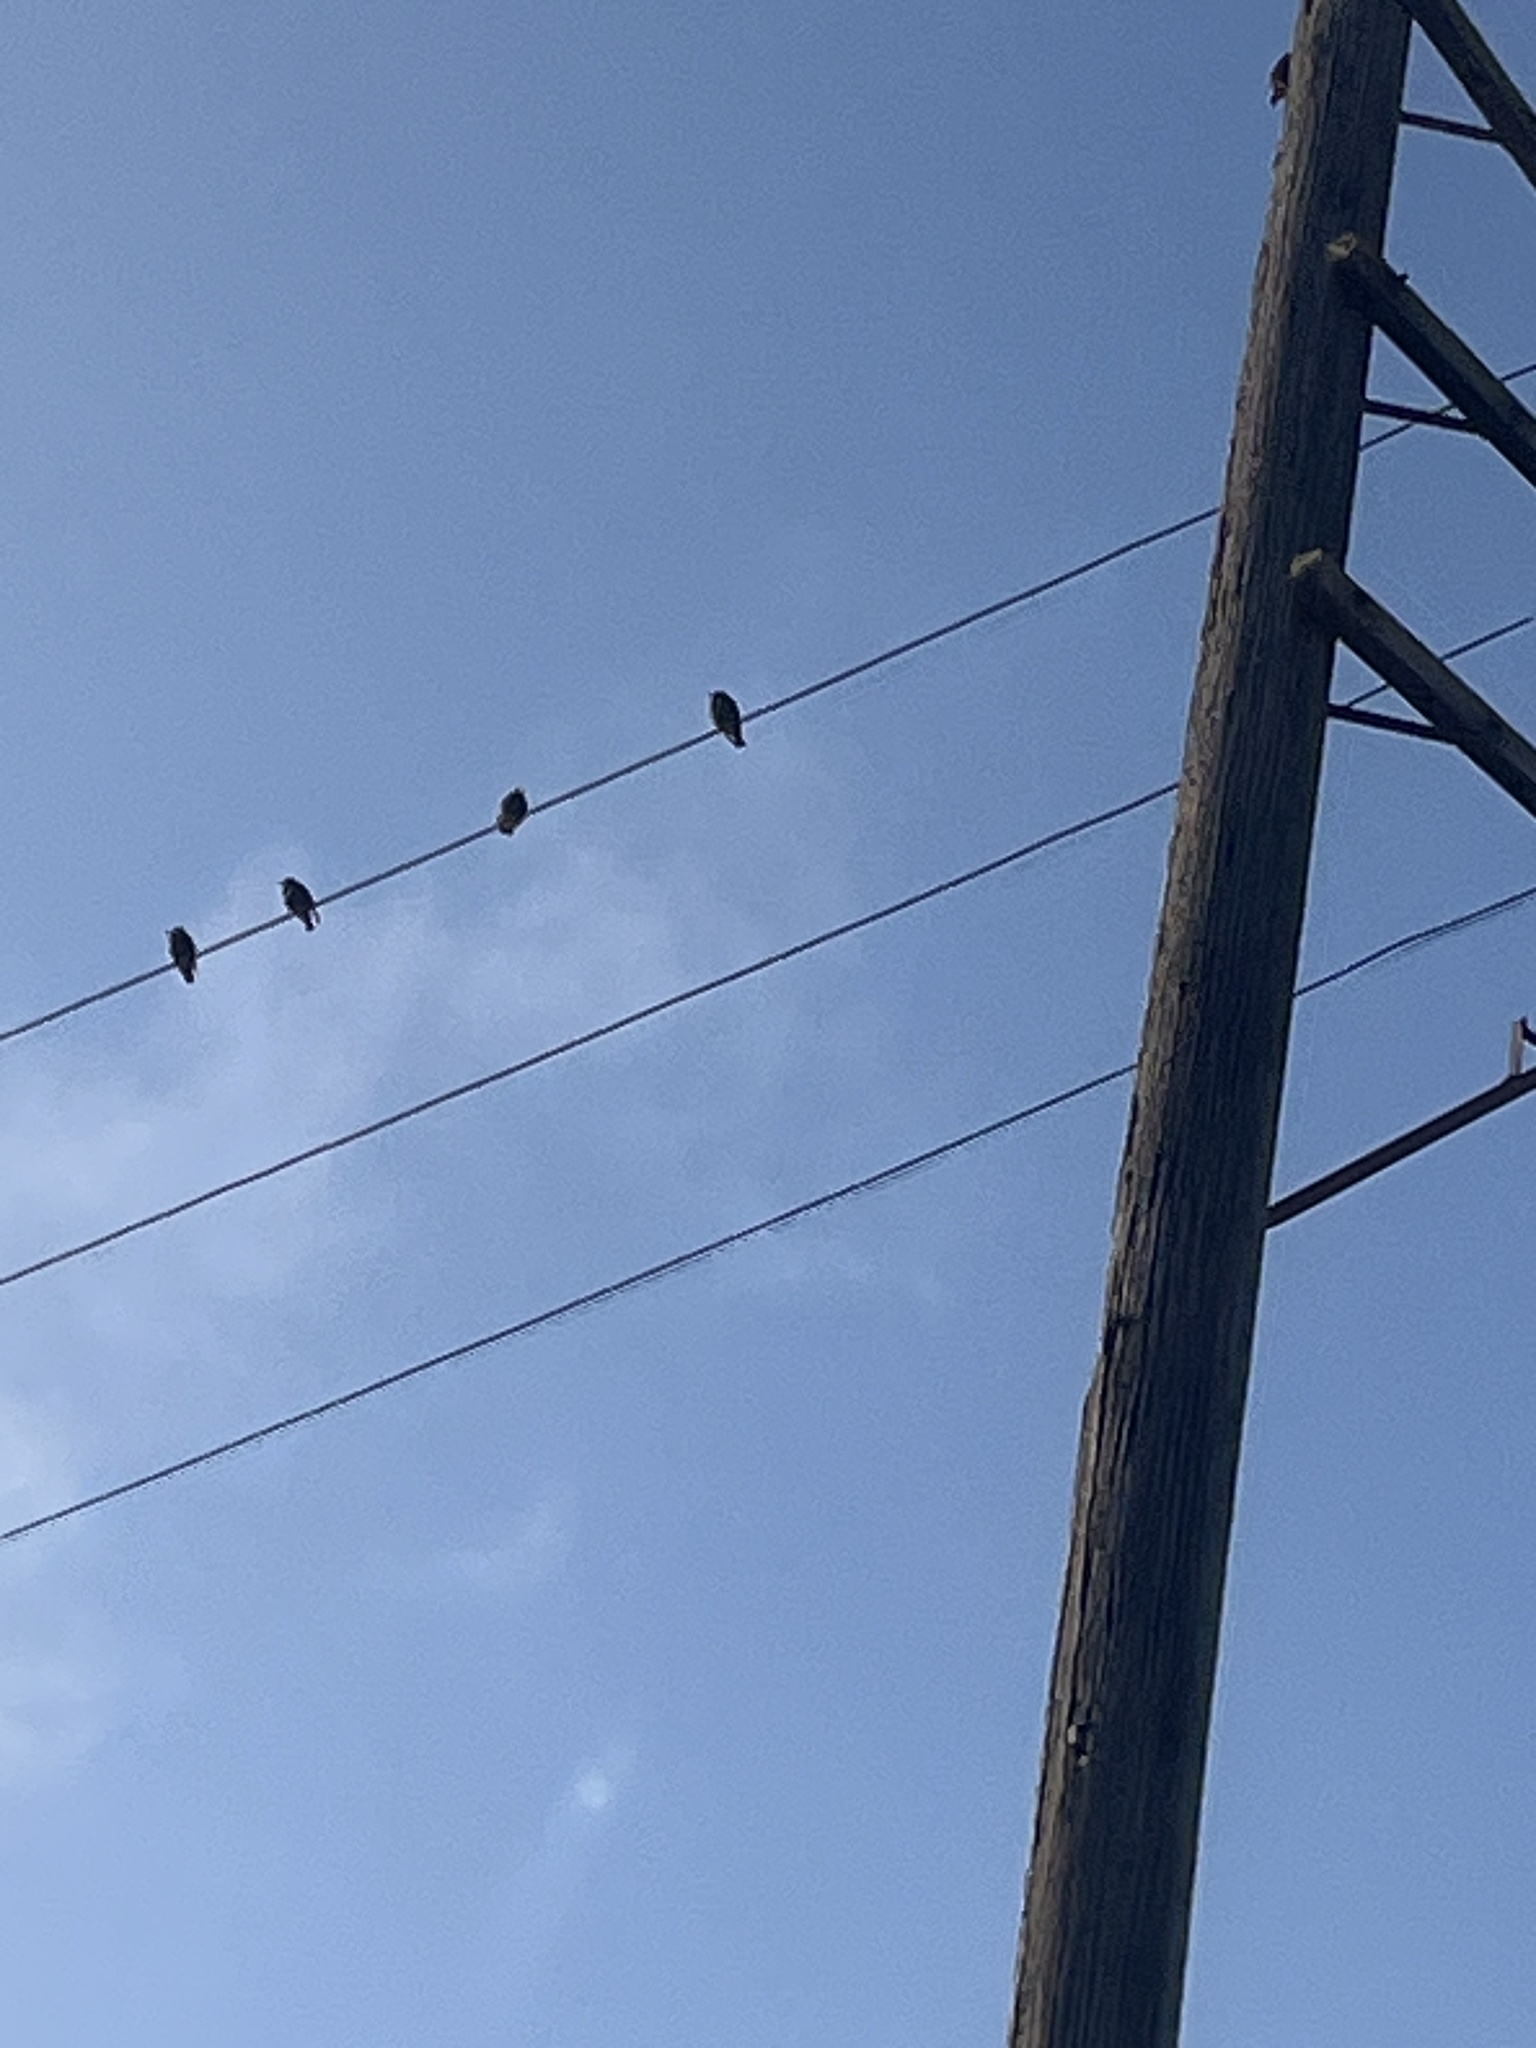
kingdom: Animalia
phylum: Chordata
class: Aves
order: Passeriformes
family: Sturnidae
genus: Sturnus
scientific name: Sturnus vulgaris
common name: Common starling
